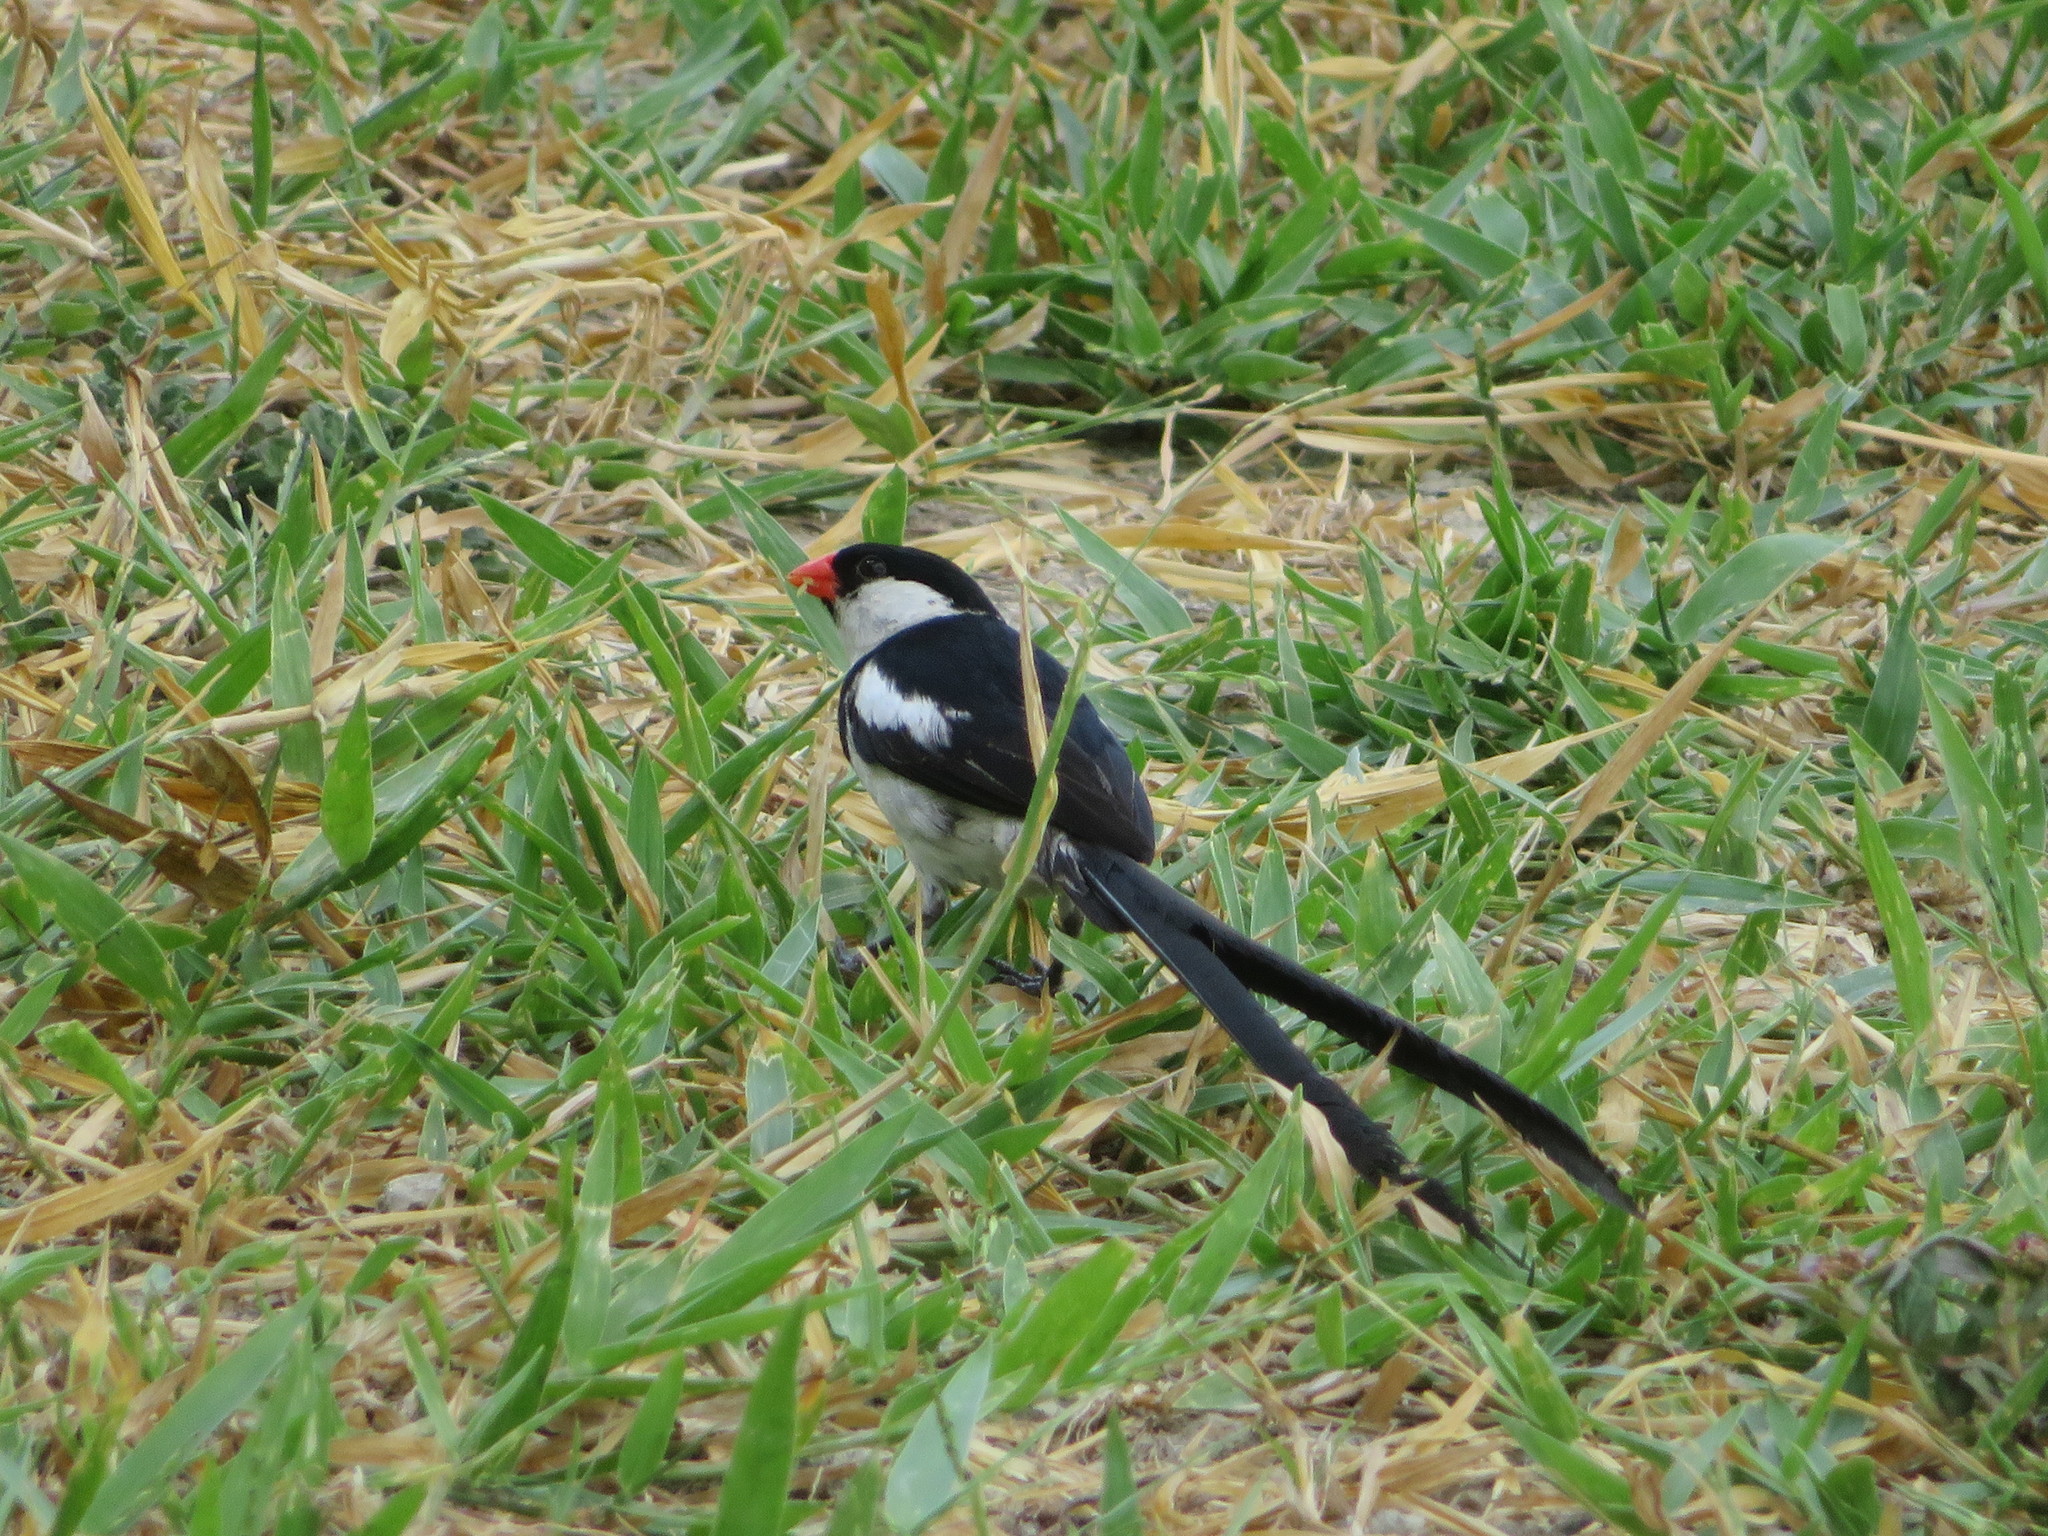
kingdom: Animalia
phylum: Chordata
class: Aves
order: Passeriformes
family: Viduidae
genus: Vidua
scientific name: Vidua macroura
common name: Pin-tailed whydah
